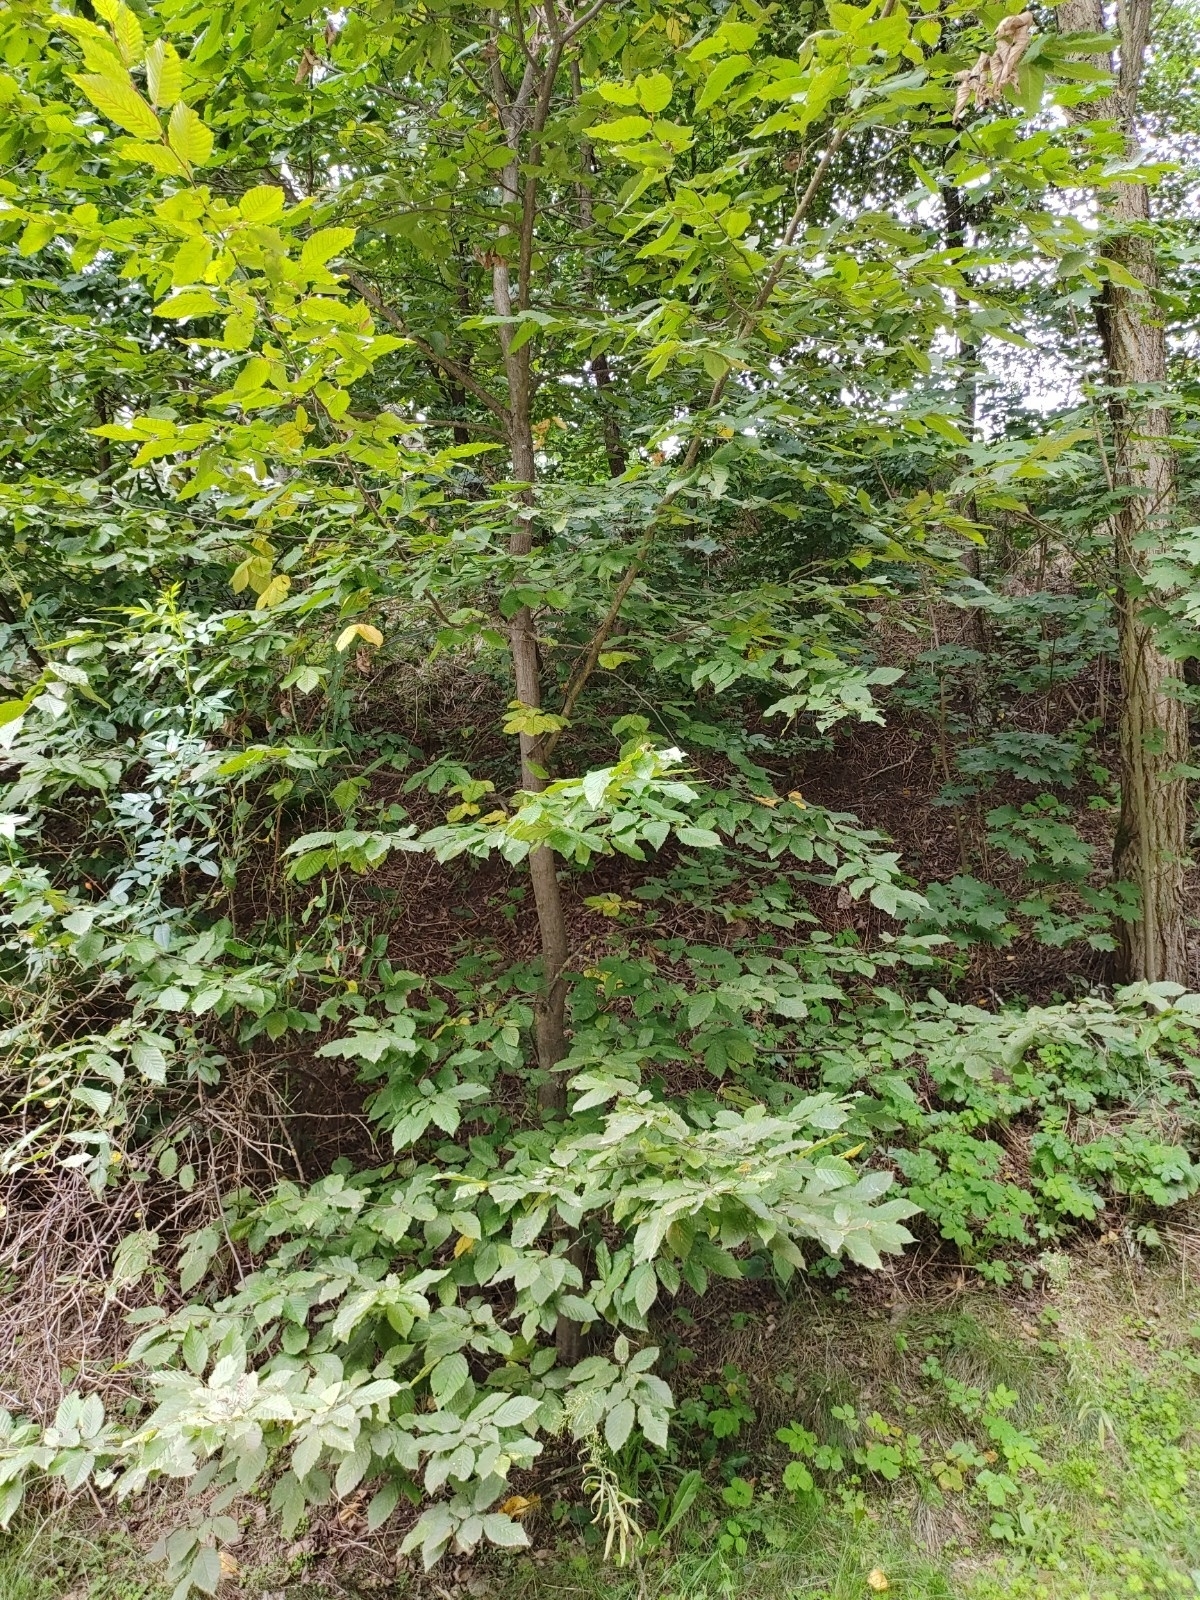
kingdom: Plantae
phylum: Tracheophyta
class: Magnoliopsida
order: Fagales
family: Betulaceae
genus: Carpinus
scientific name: Carpinus betulus
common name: Hornbeam
